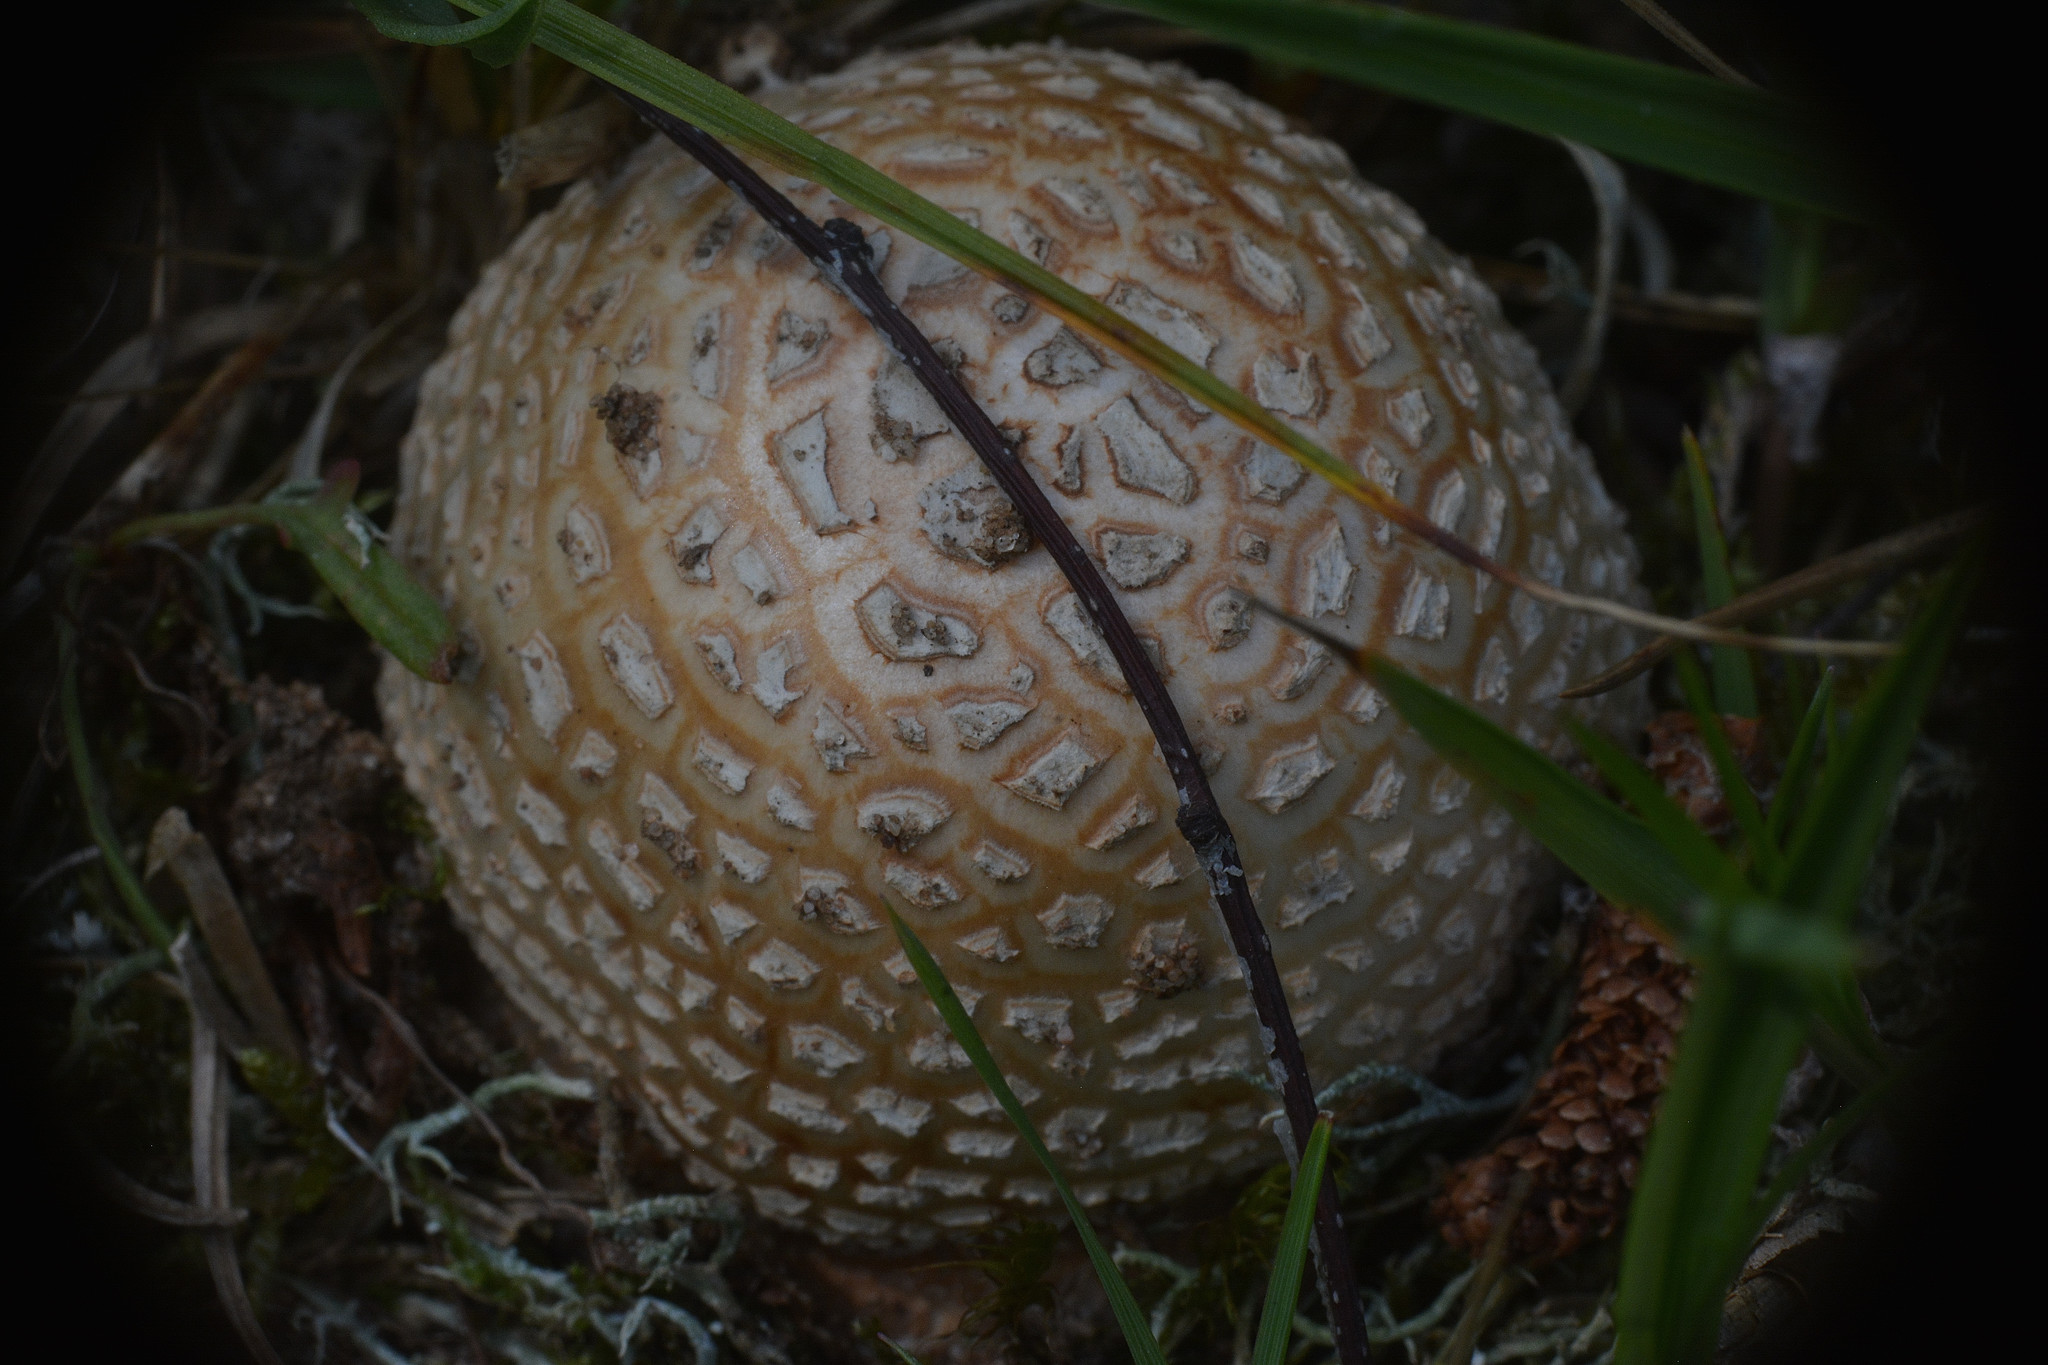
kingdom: Fungi
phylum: Basidiomycota
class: Agaricomycetes
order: Agaricales
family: Amanitaceae
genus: Amanita
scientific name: Amanita pantherina
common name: Panthercap
